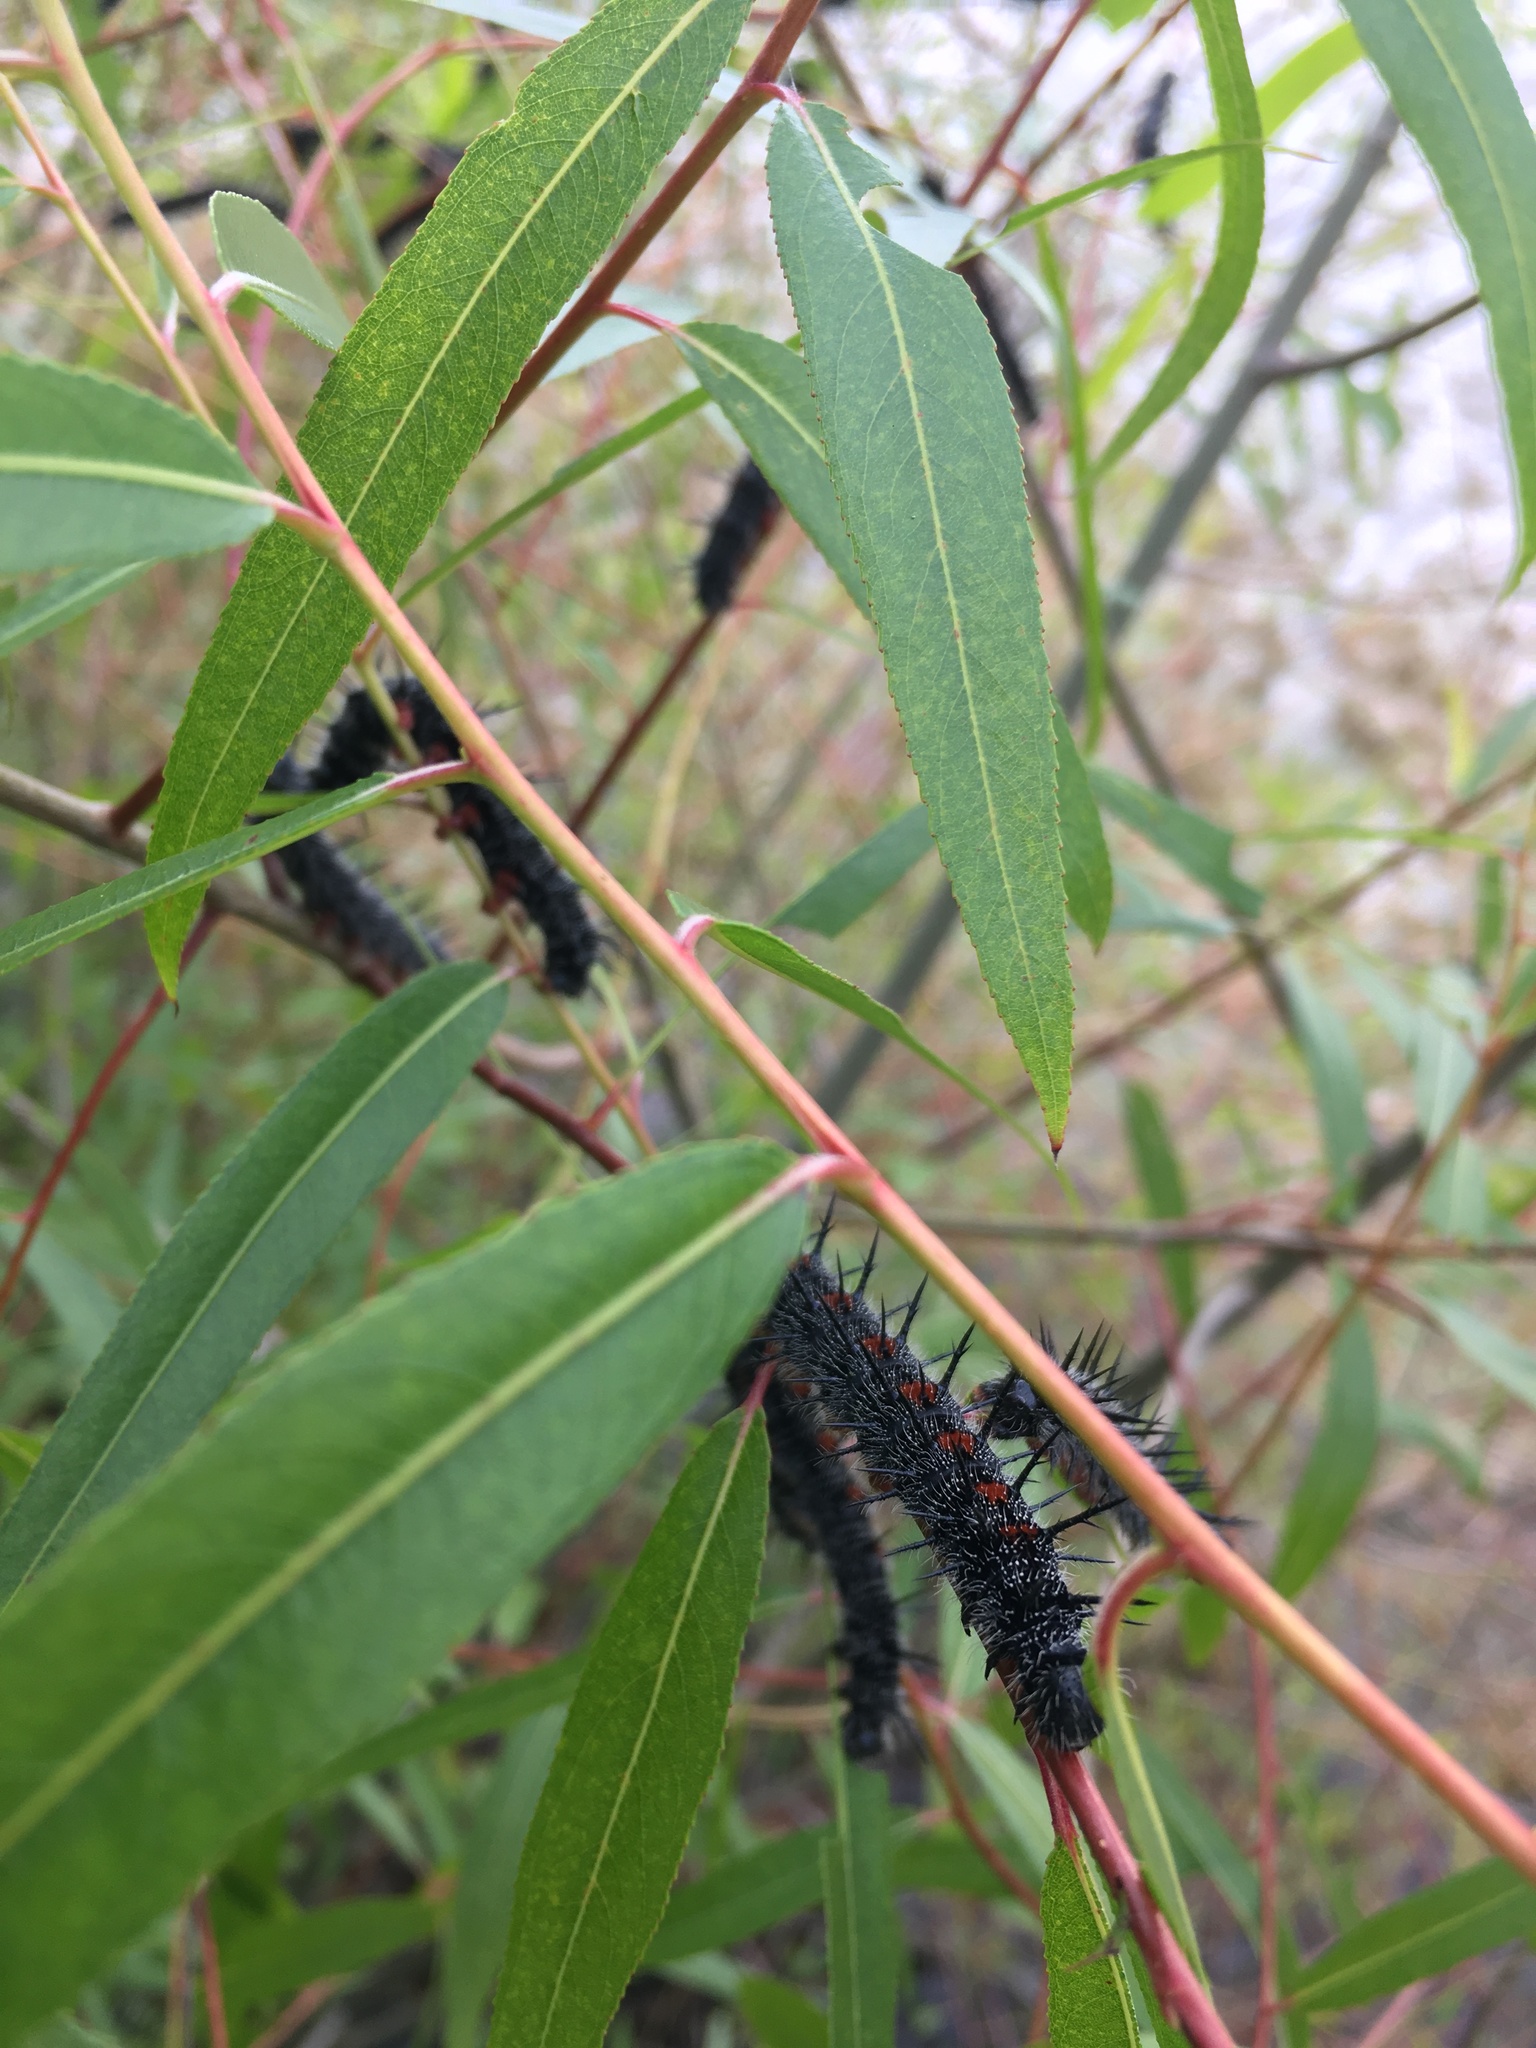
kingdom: Animalia
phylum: Arthropoda
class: Insecta
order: Lepidoptera
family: Nymphalidae
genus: Nymphalis
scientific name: Nymphalis antiopa
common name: Camberwell beauty
